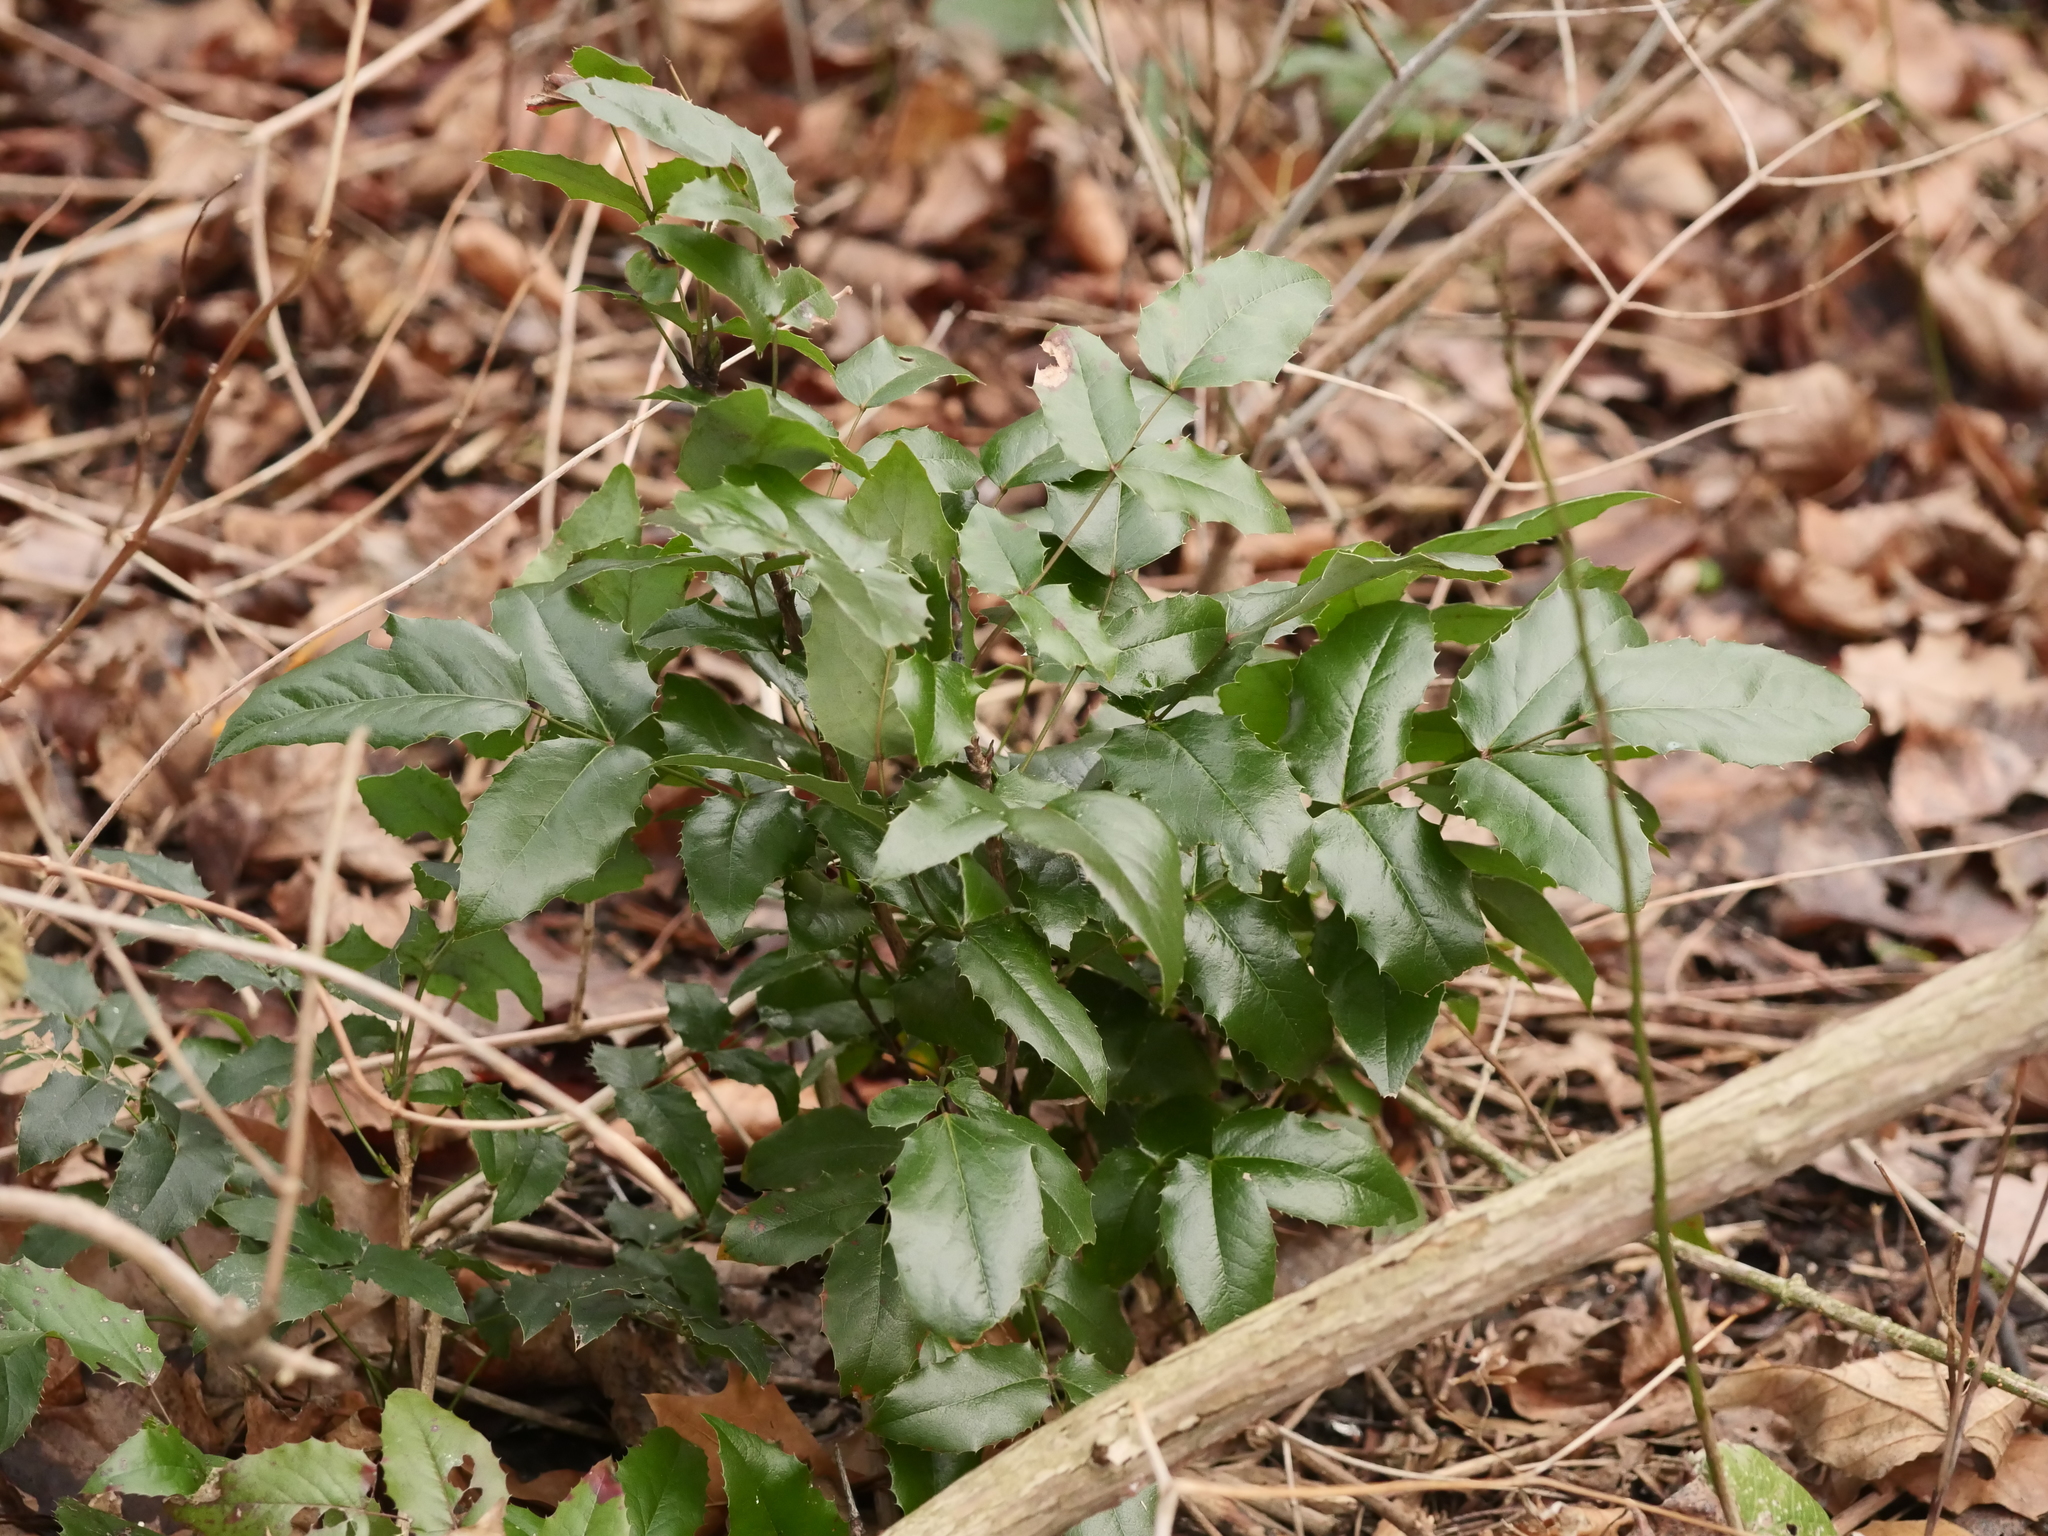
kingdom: Plantae
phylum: Tracheophyta
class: Magnoliopsida
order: Ranunculales
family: Berberidaceae
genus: Mahonia
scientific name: Mahonia aquifolium
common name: Oregon-grape
